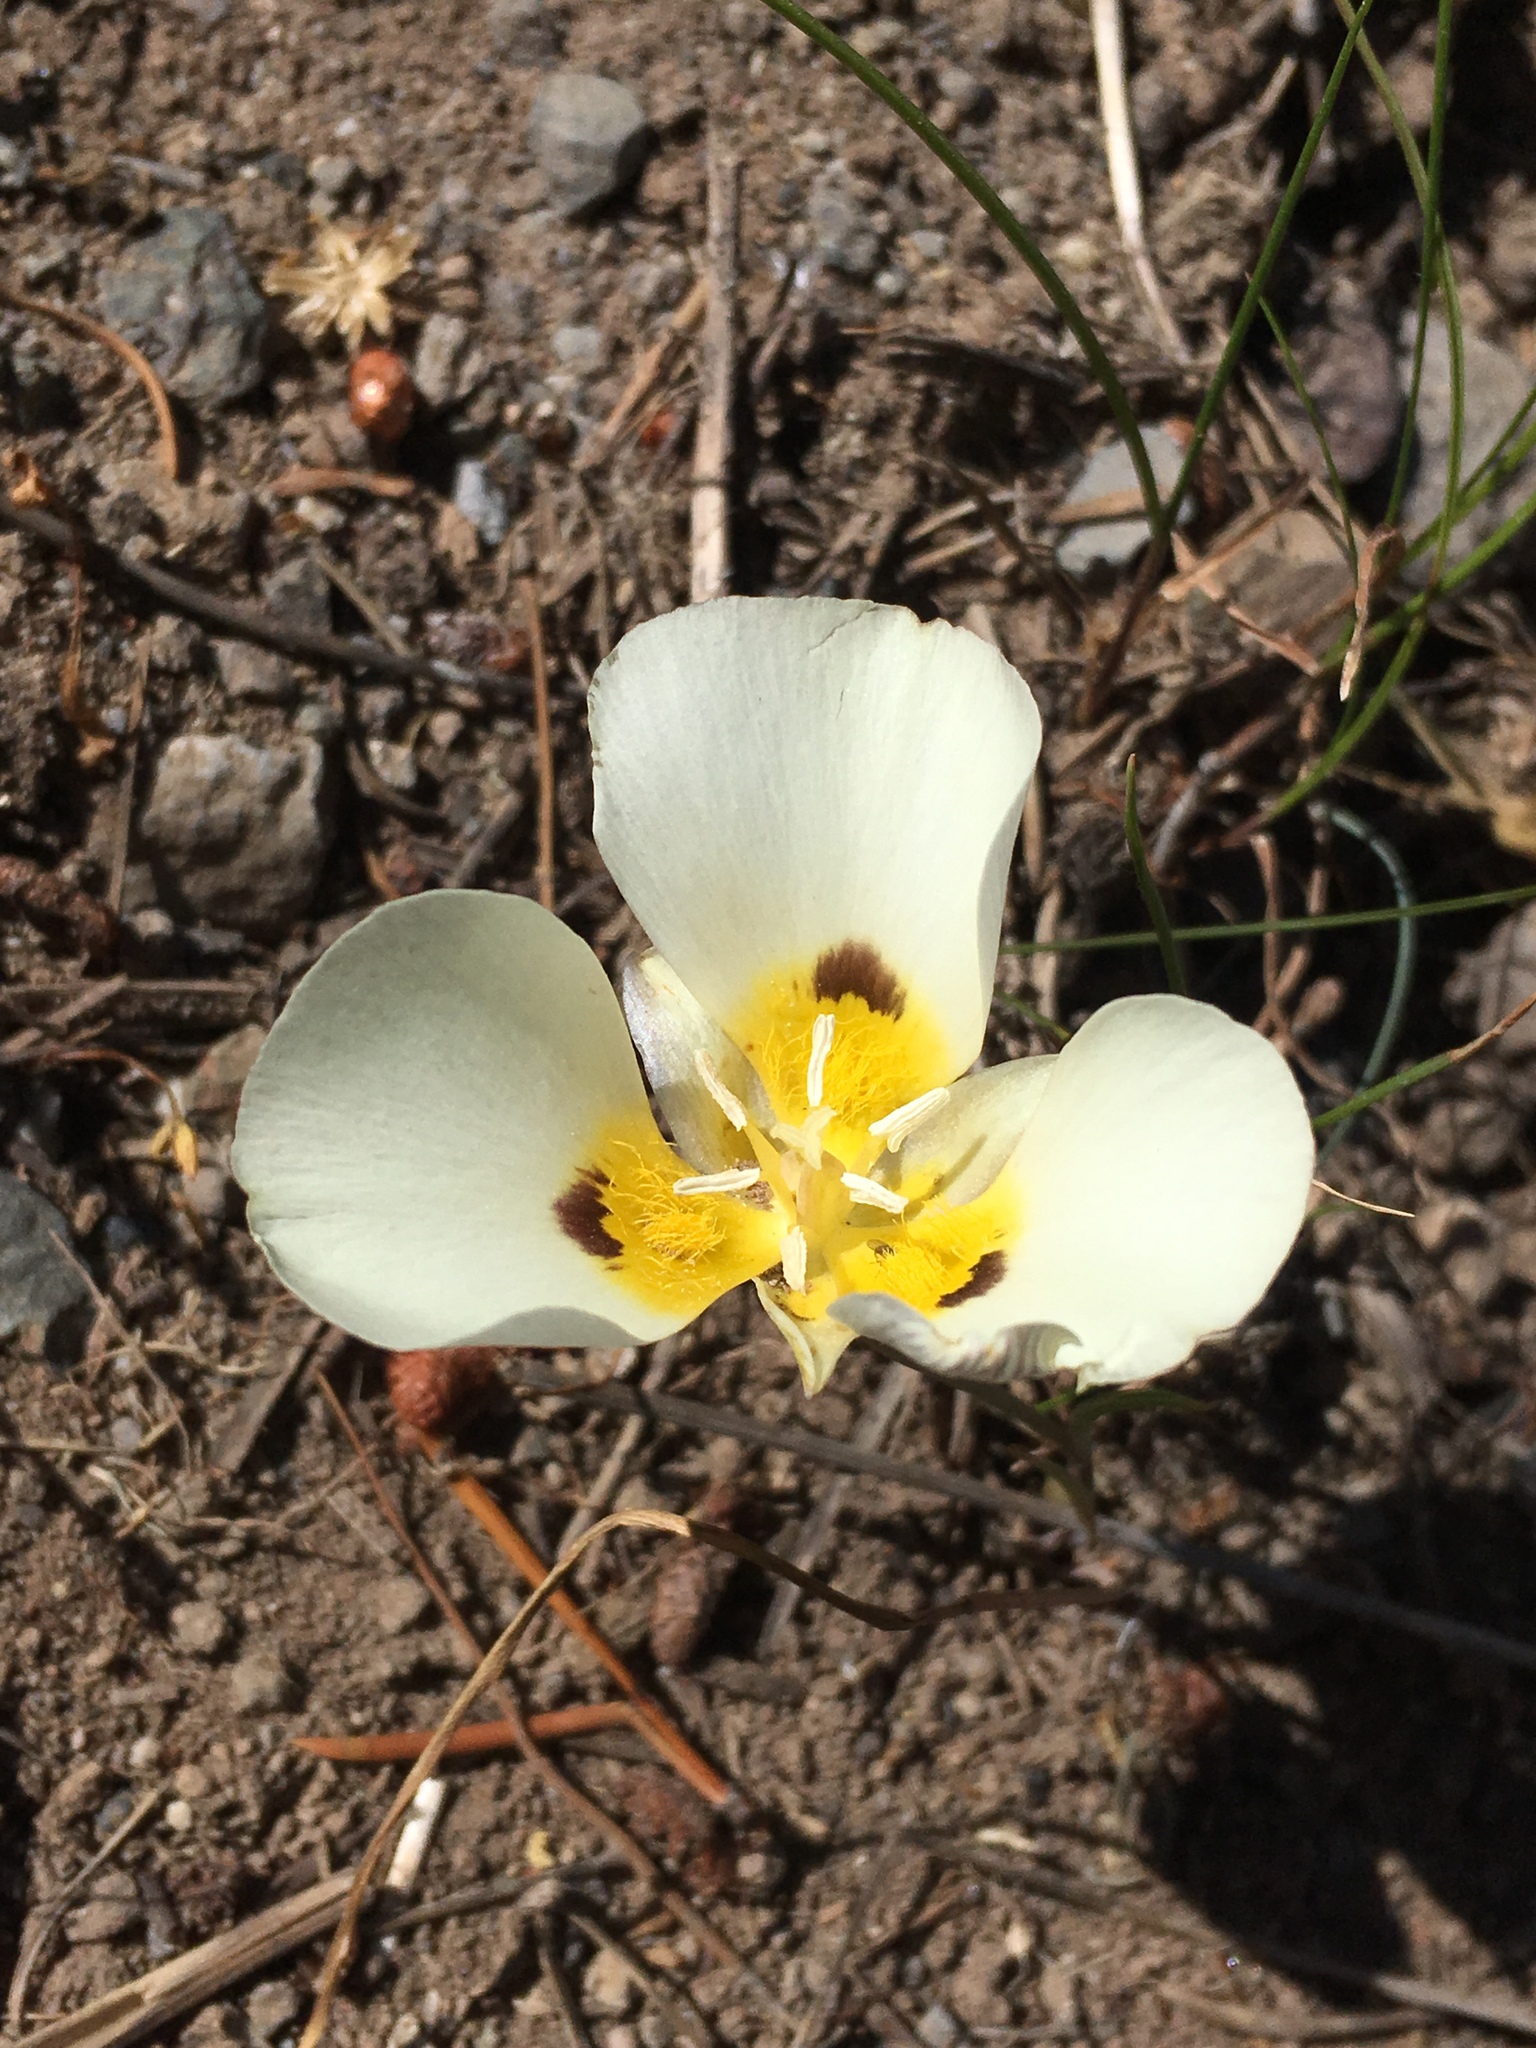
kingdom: Plantae
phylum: Tracheophyta
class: Liliopsida
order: Liliales
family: Liliaceae
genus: Calochortus
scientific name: Calochortus leichtlinii
